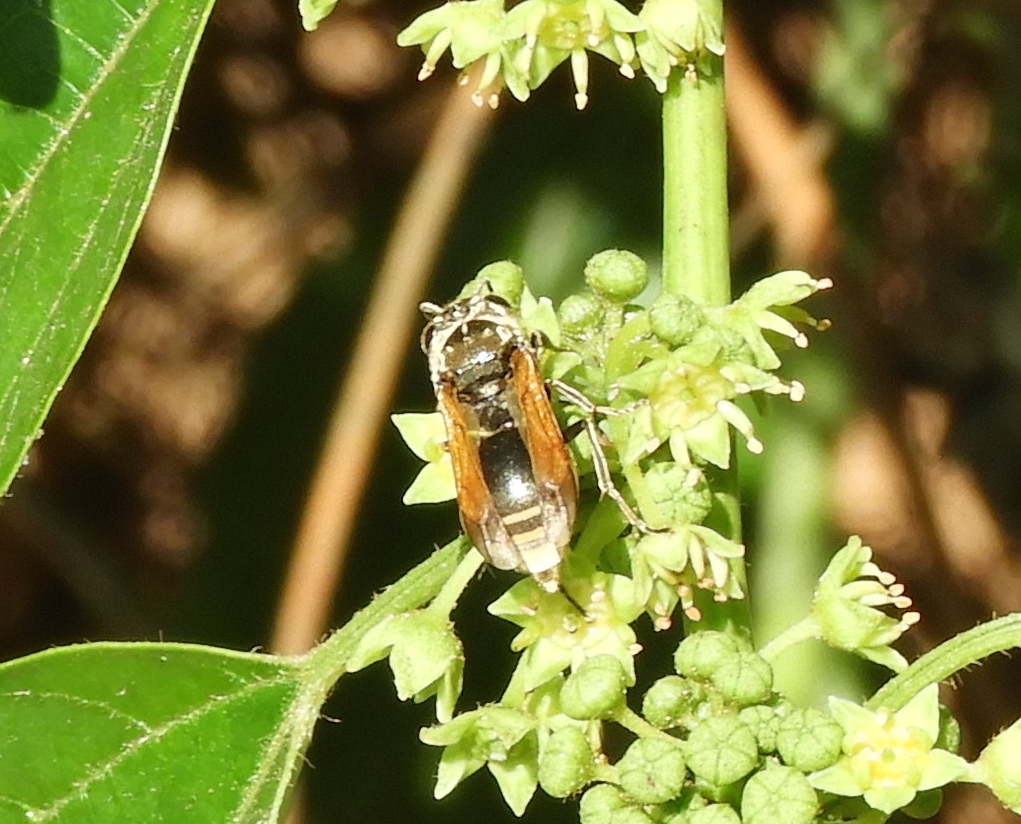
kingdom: Animalia
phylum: Arthropoda
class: Insecta
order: Hymenoptera
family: Vespidae
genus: Brachygastra
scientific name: Brachygastra mellifica
